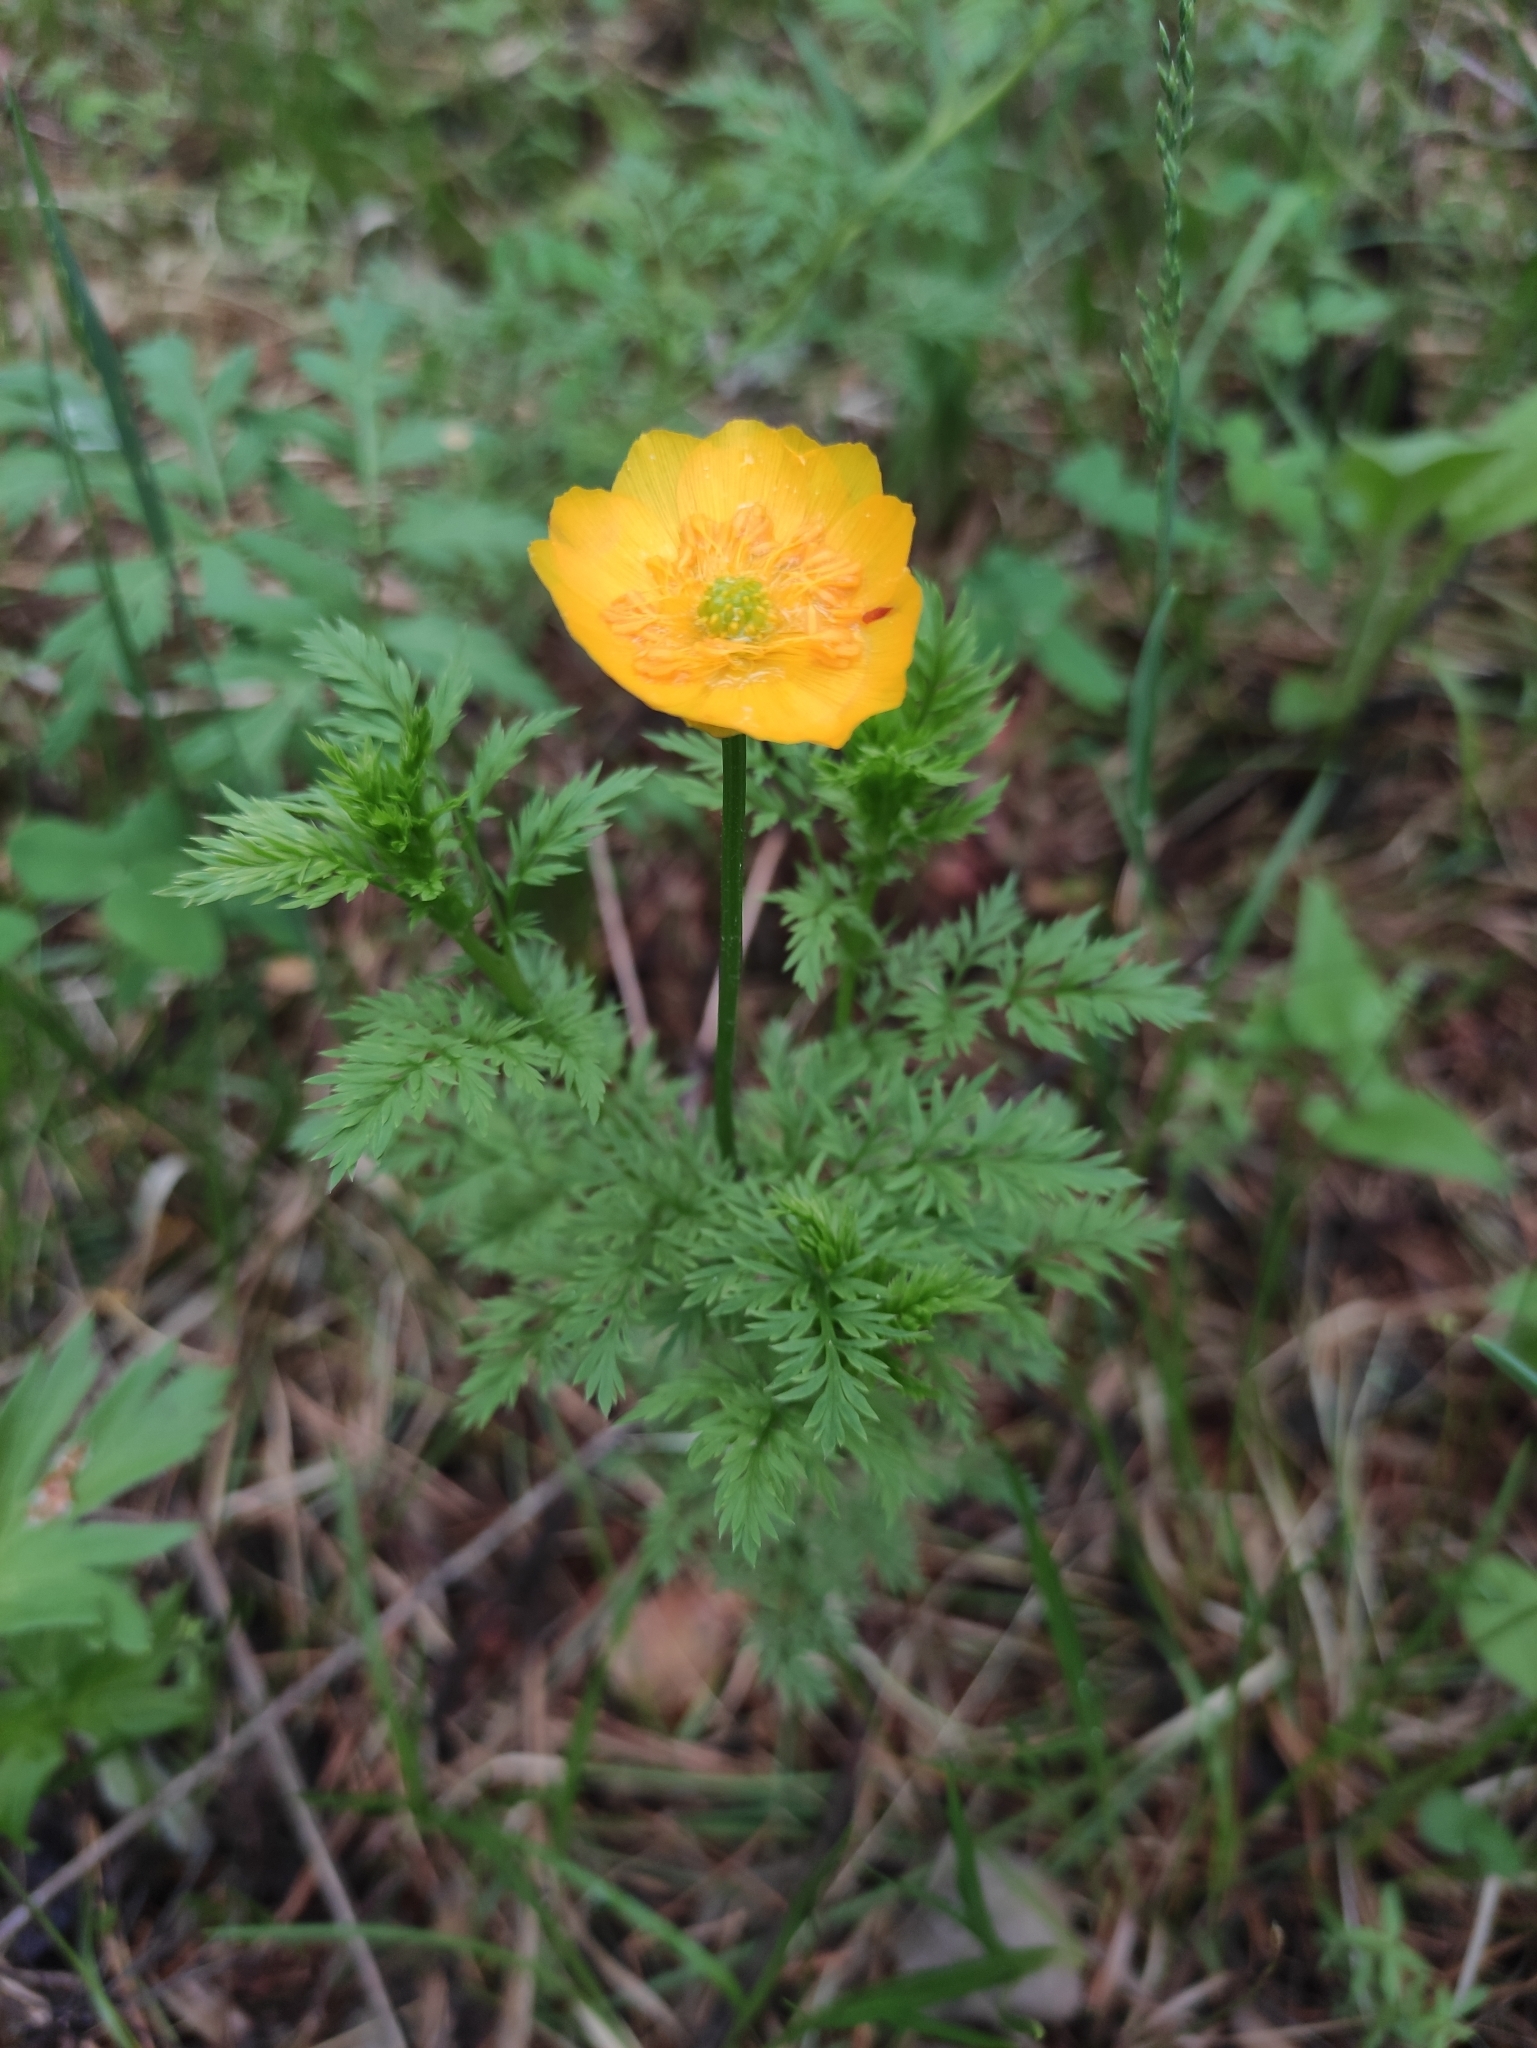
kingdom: Plantae
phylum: Tracheophyta
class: Magnoliopsida
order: Ranunculales
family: Ranunculaceae
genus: Adonis
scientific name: Adonis
